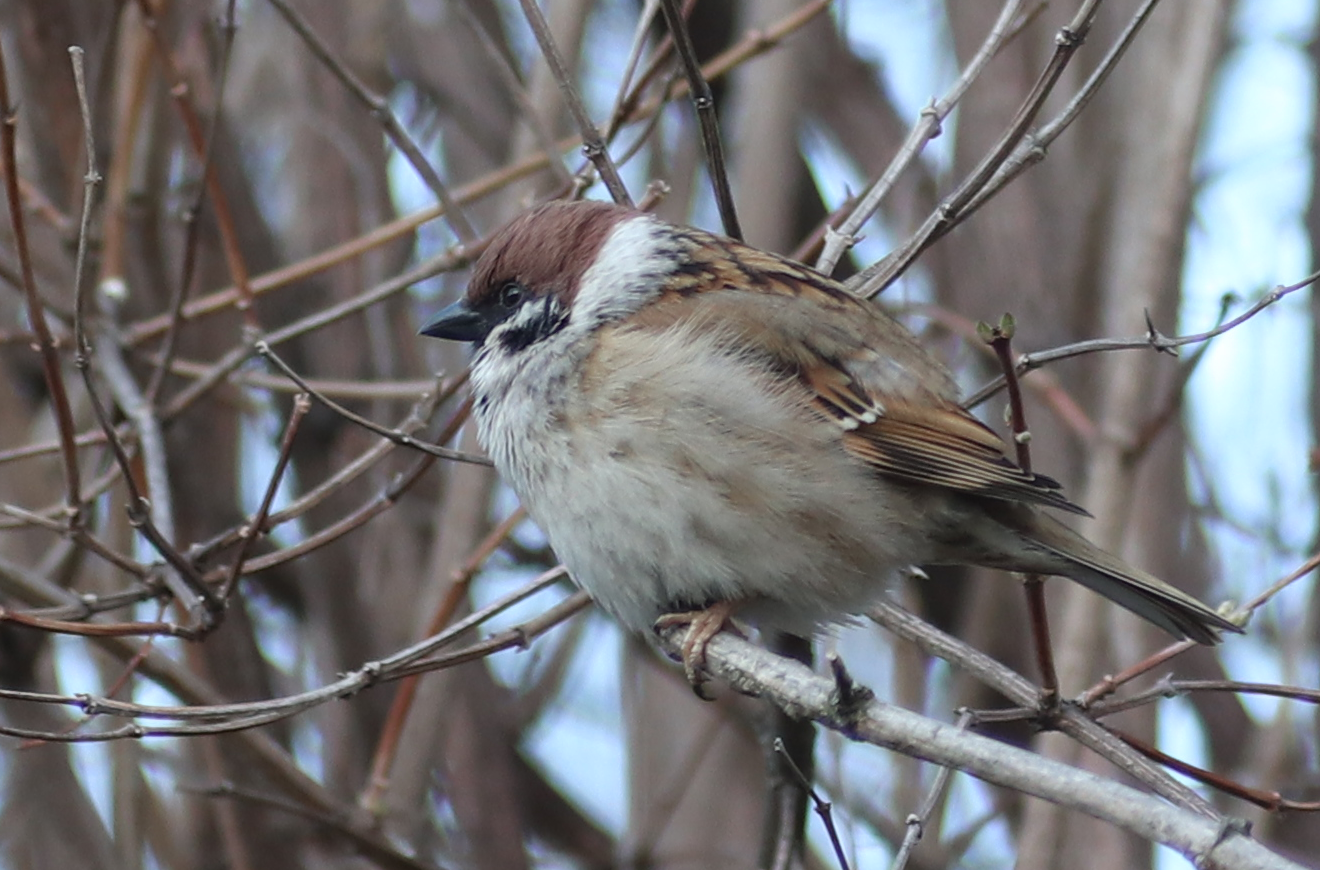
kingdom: Animalia
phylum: Chordata
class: Aves
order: Passeriformes
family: Passeridae
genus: Passer
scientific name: Passer montanus
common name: Eurasian tree sparrow
